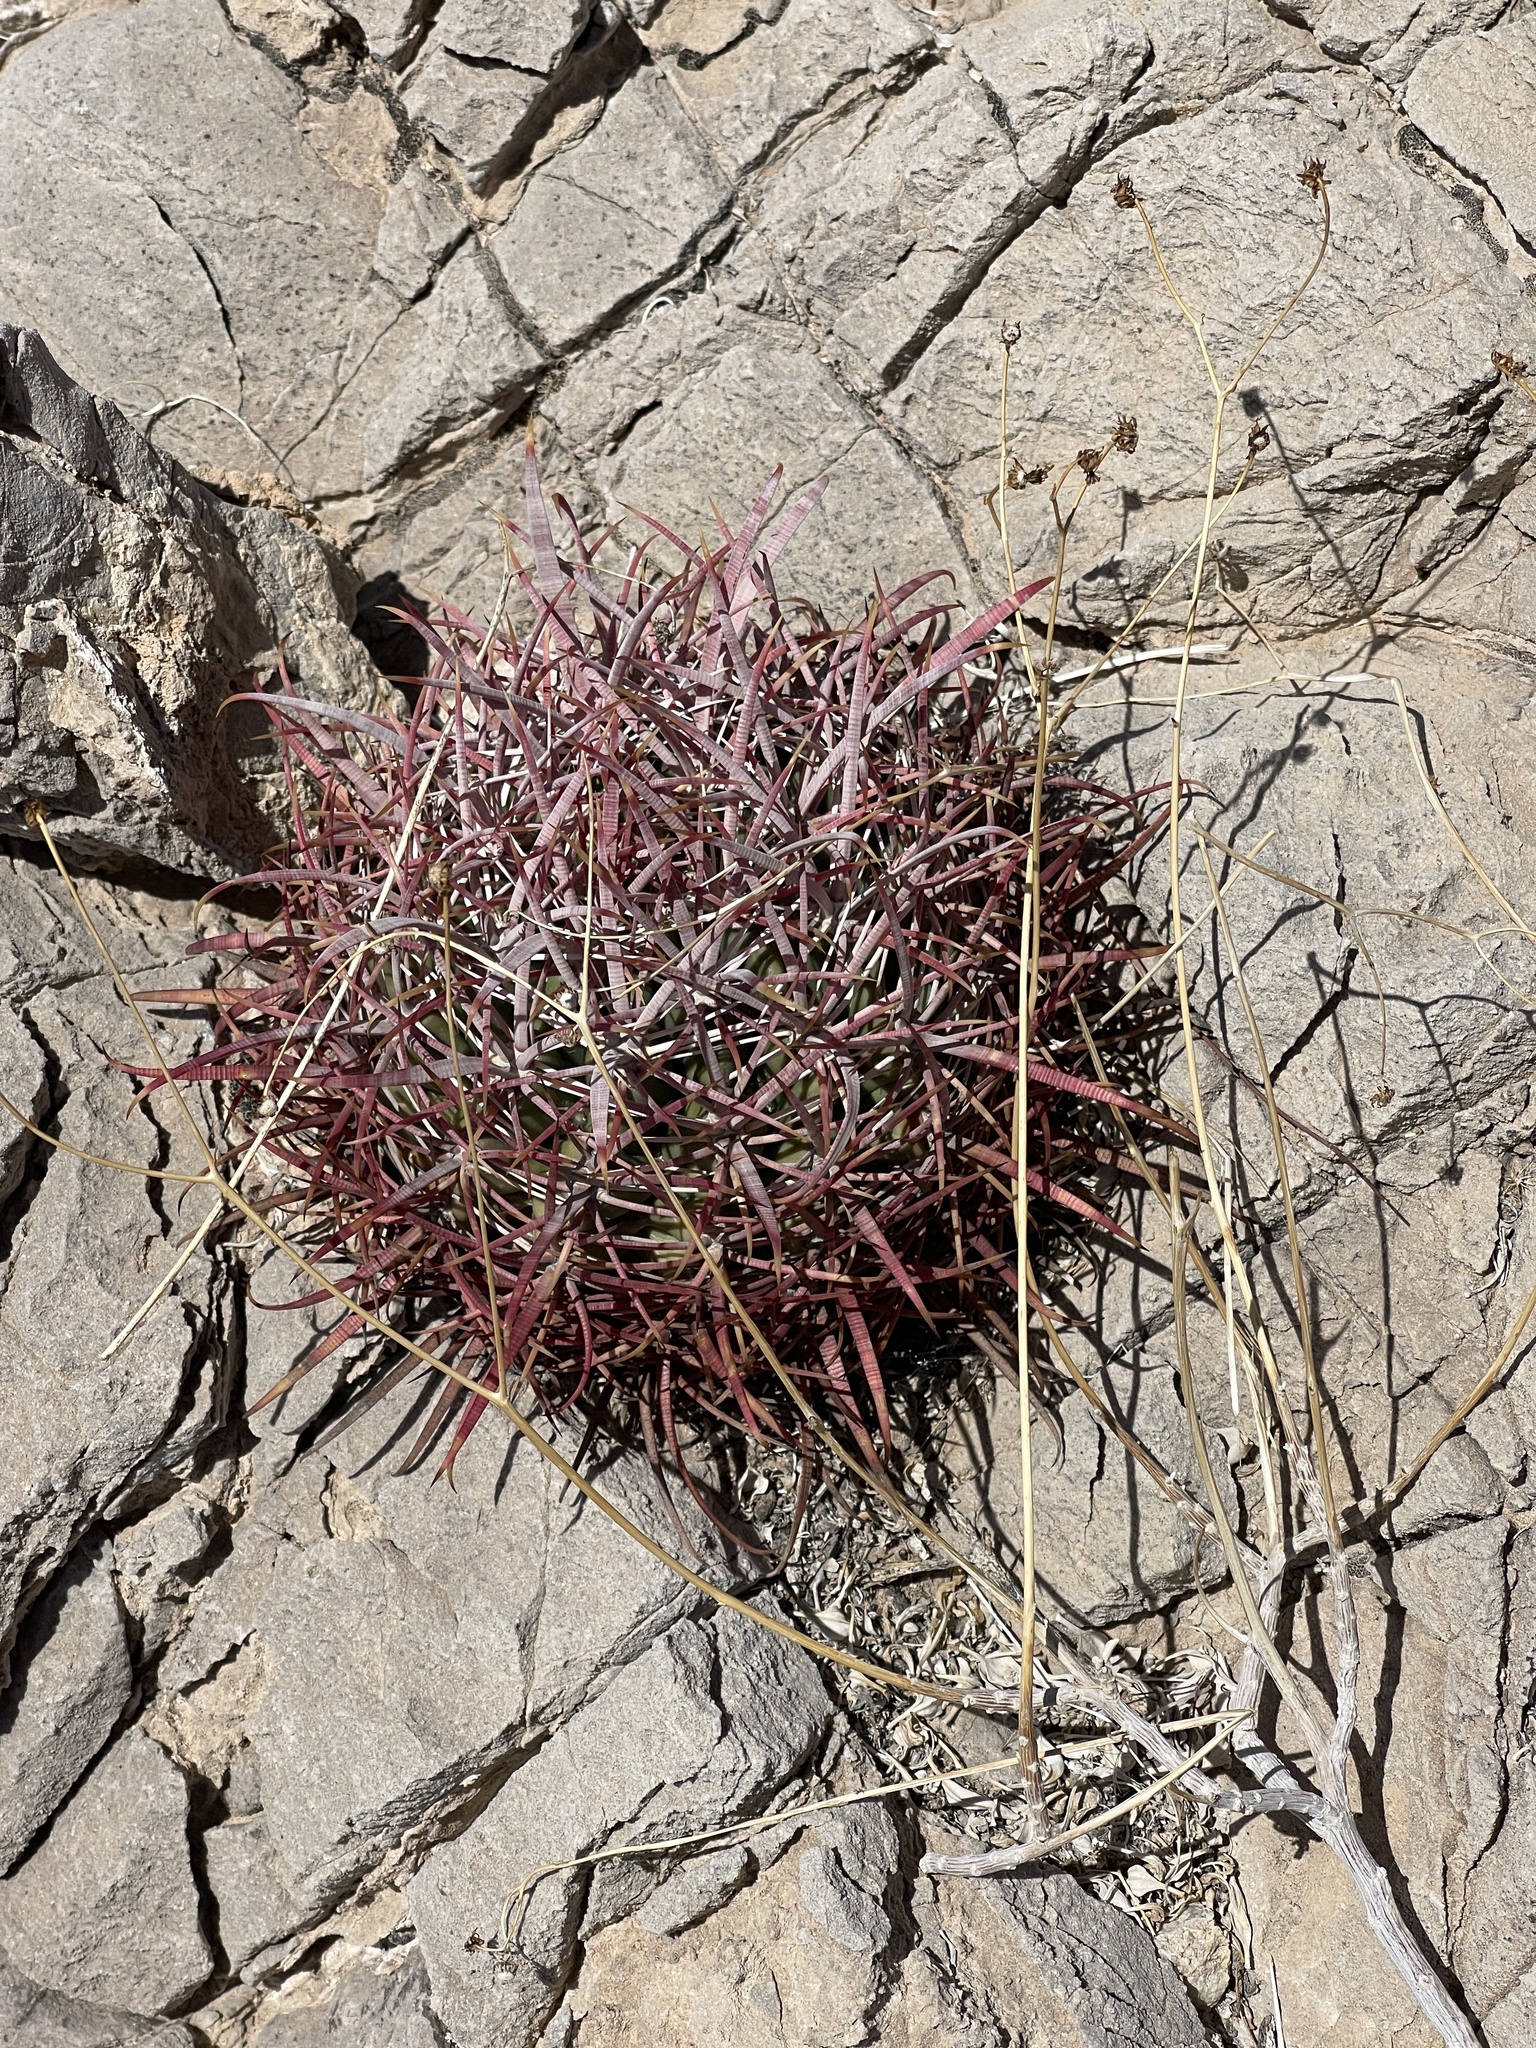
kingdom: Plantae
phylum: Tracheophyta
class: Magnoliopsida
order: Caryophyllales
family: Cactaceae
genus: Ferocactus
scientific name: Ferocactus cylindraceus
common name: California barrel cactus
